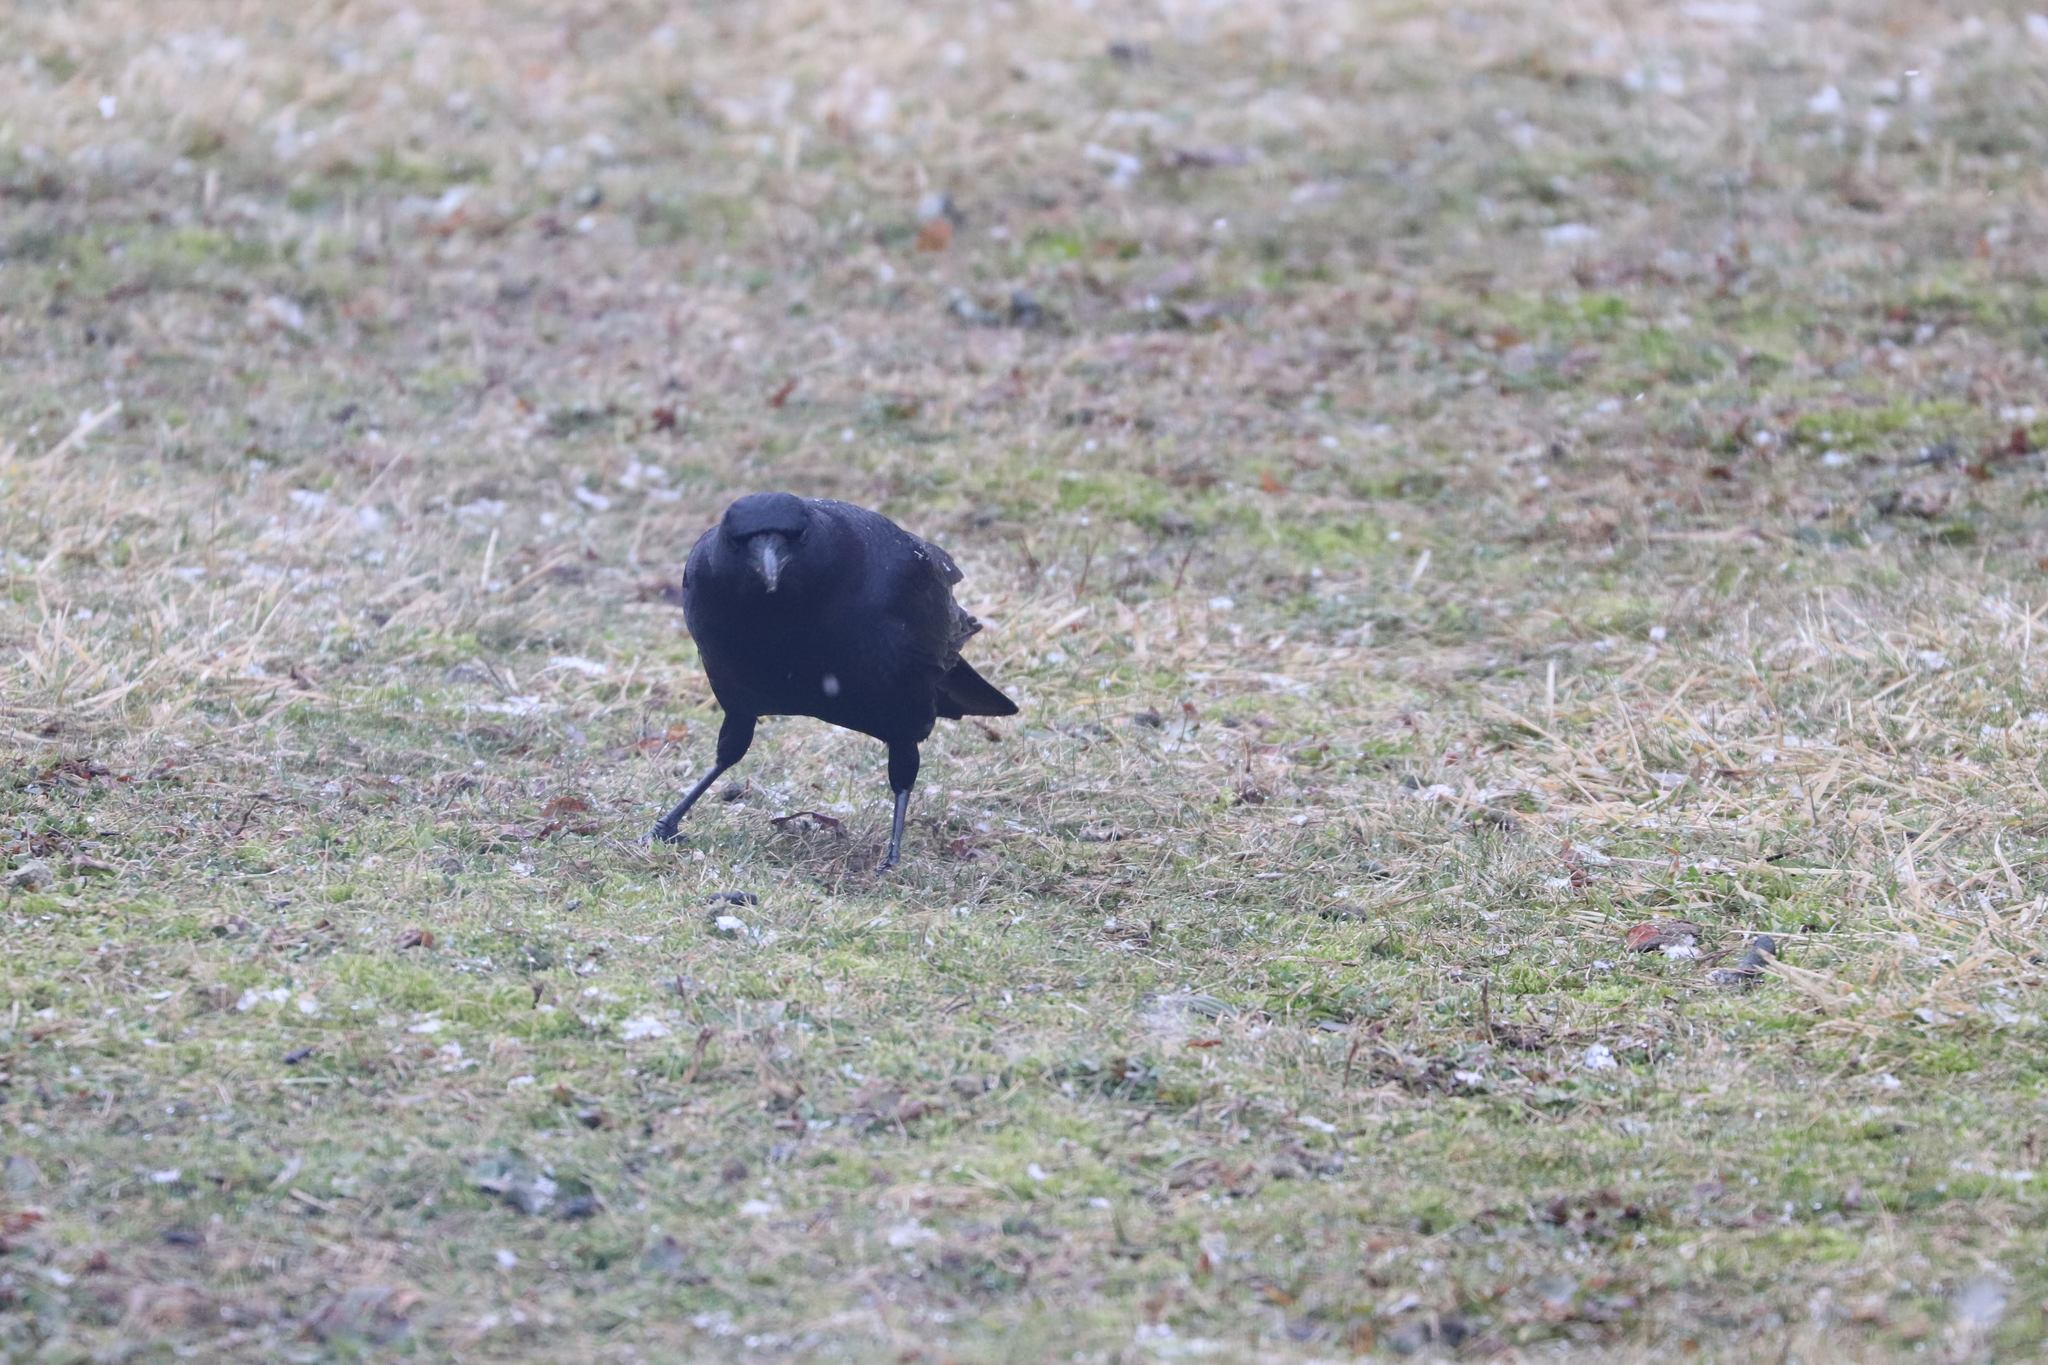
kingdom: Animalia
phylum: Chordata
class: Aves
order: Passeriformes
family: Corvidae
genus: Corvus
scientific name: Corvus
